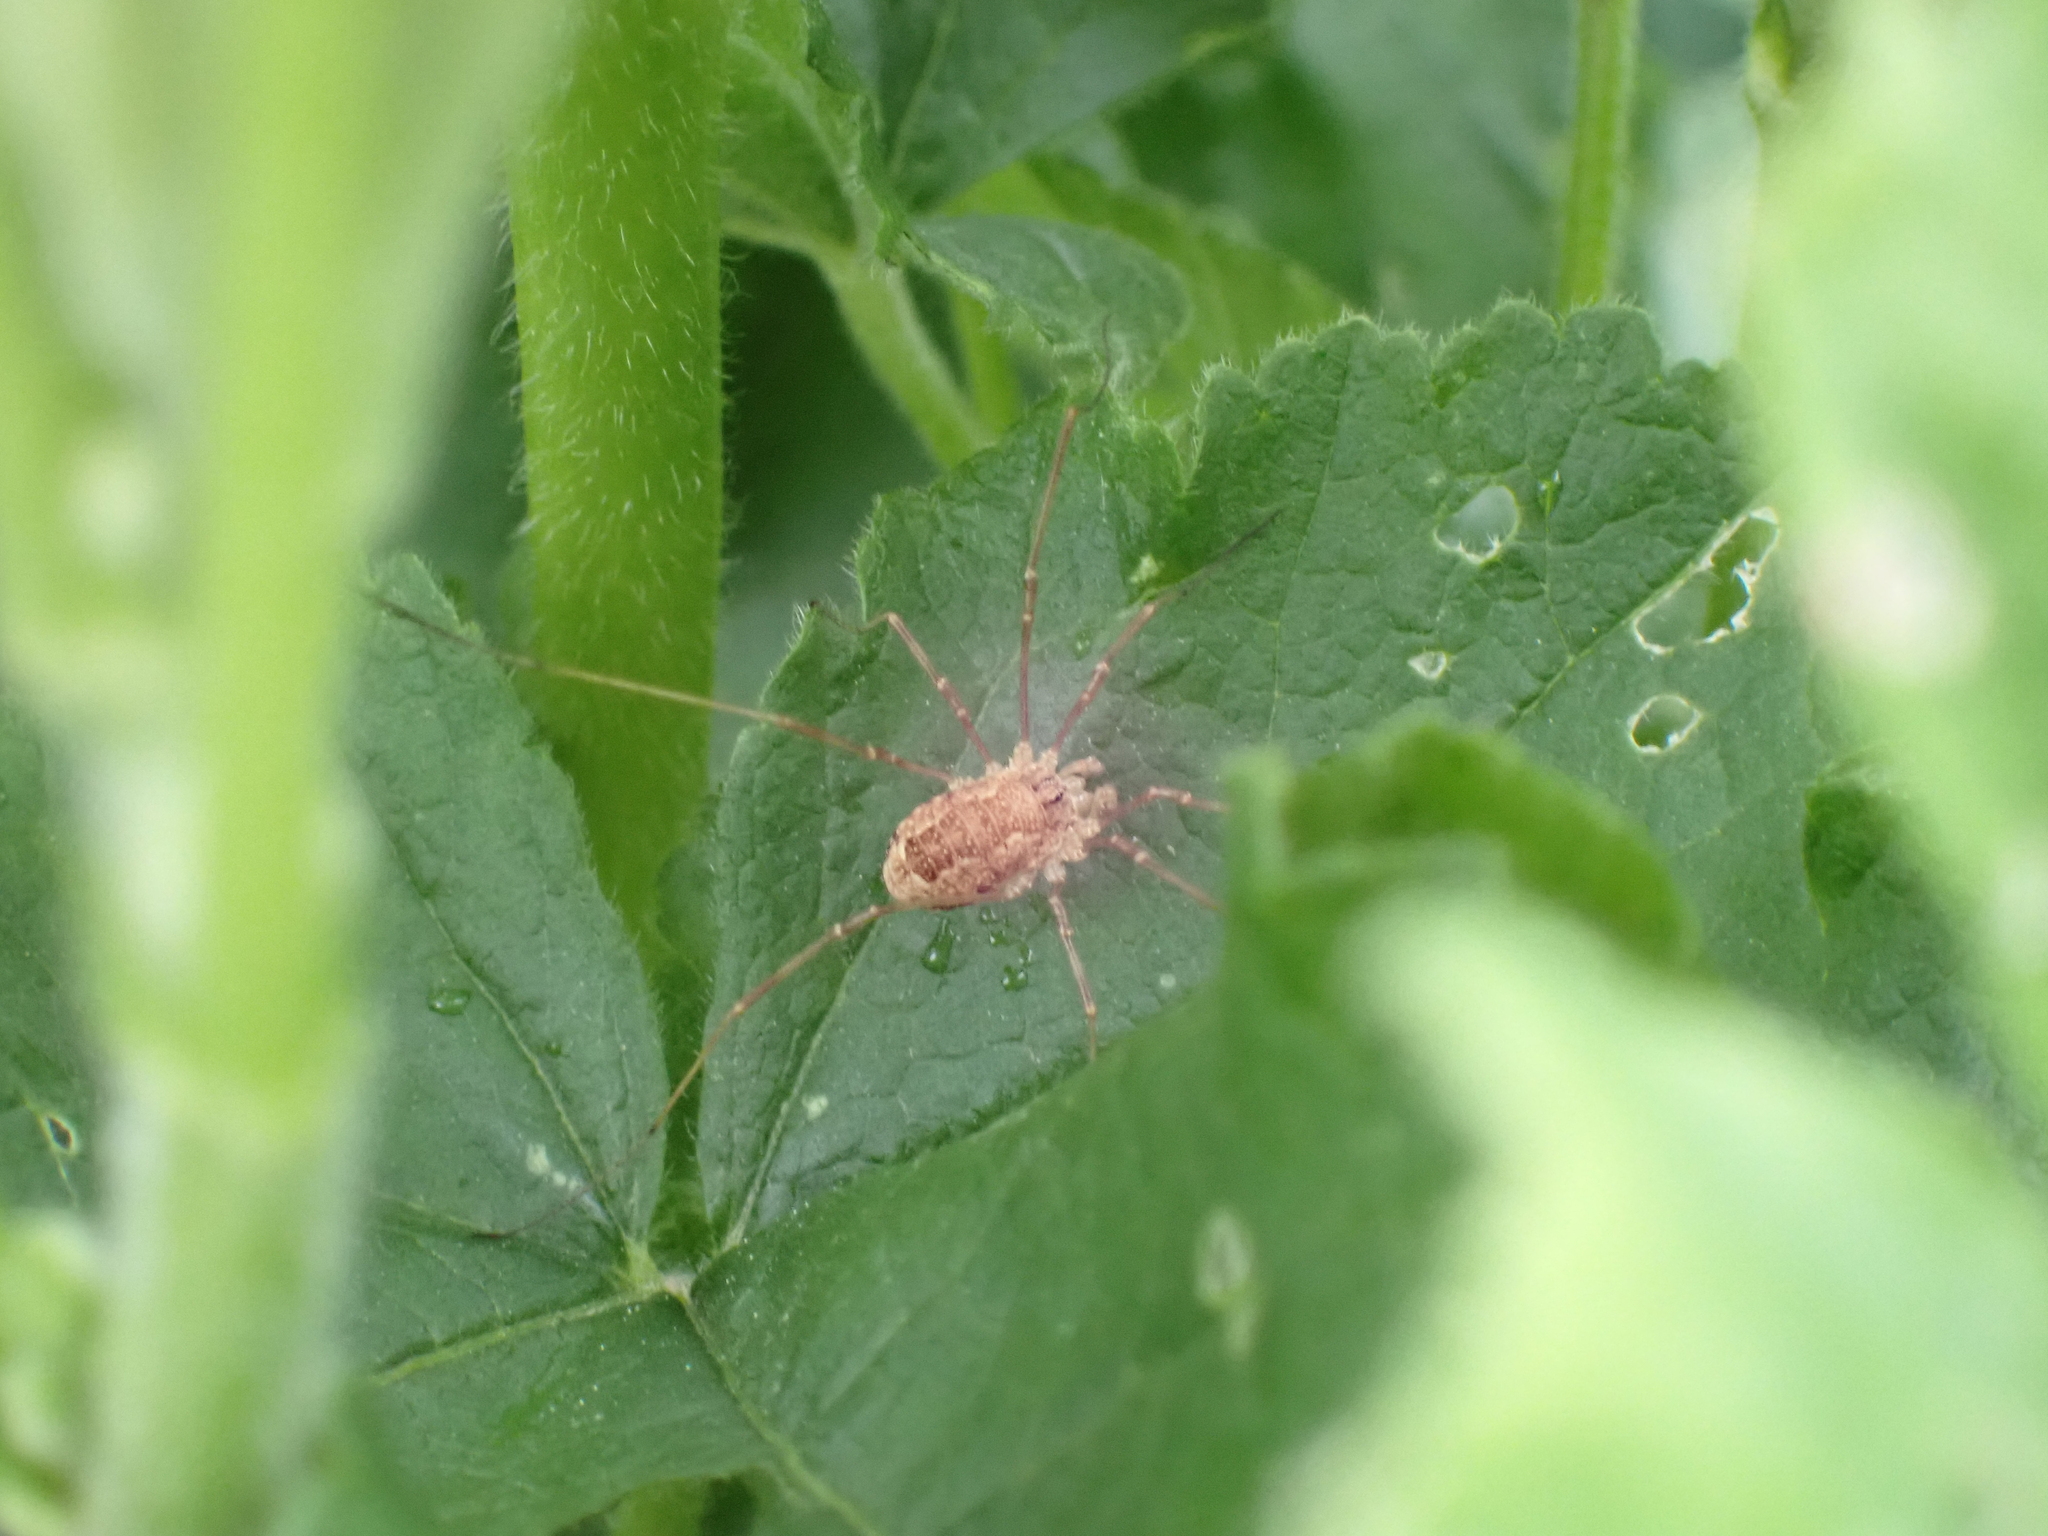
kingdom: Animalia
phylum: Arthropoda
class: Arachnida
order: Opiliones
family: Phalangiidae
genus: Rilaena
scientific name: Rilaena triangularis
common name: Spring harvestman
